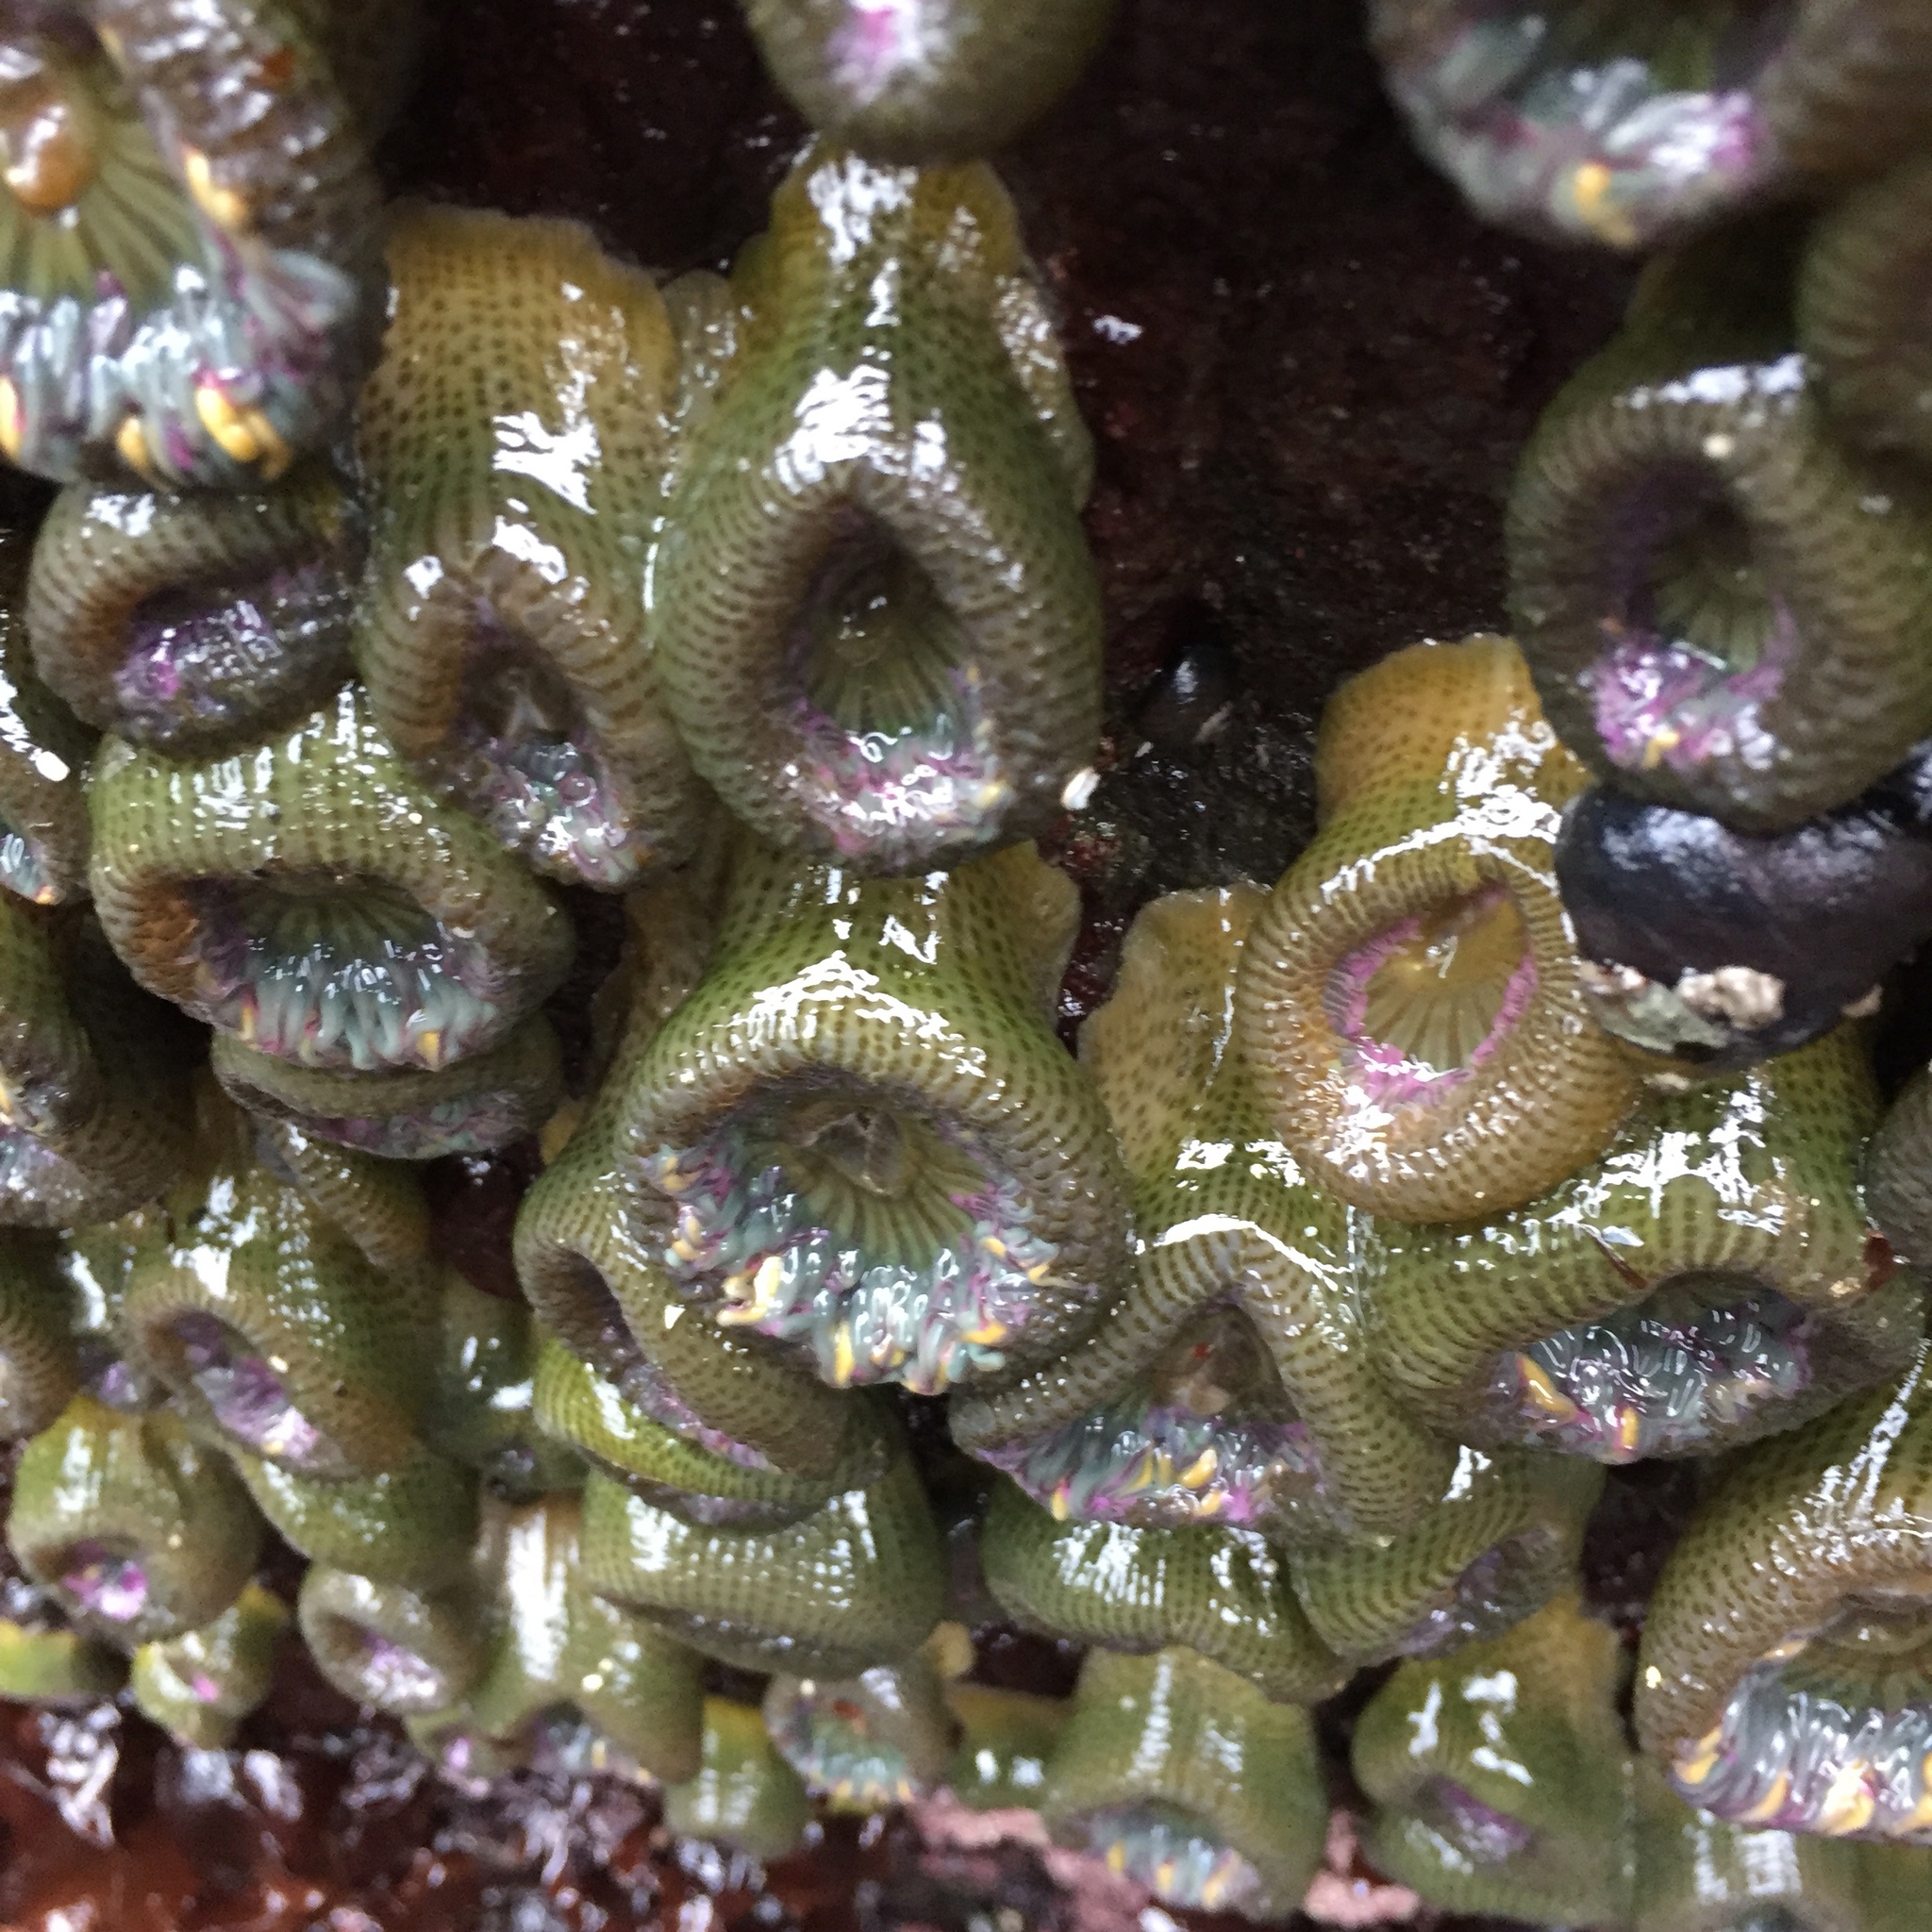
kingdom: Animalia
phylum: Cnidaria
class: Anthozoa
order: Actiniaria
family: Actiniidae
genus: Anthopleura
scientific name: Anthopleura elegantissima
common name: Clonal anemone
